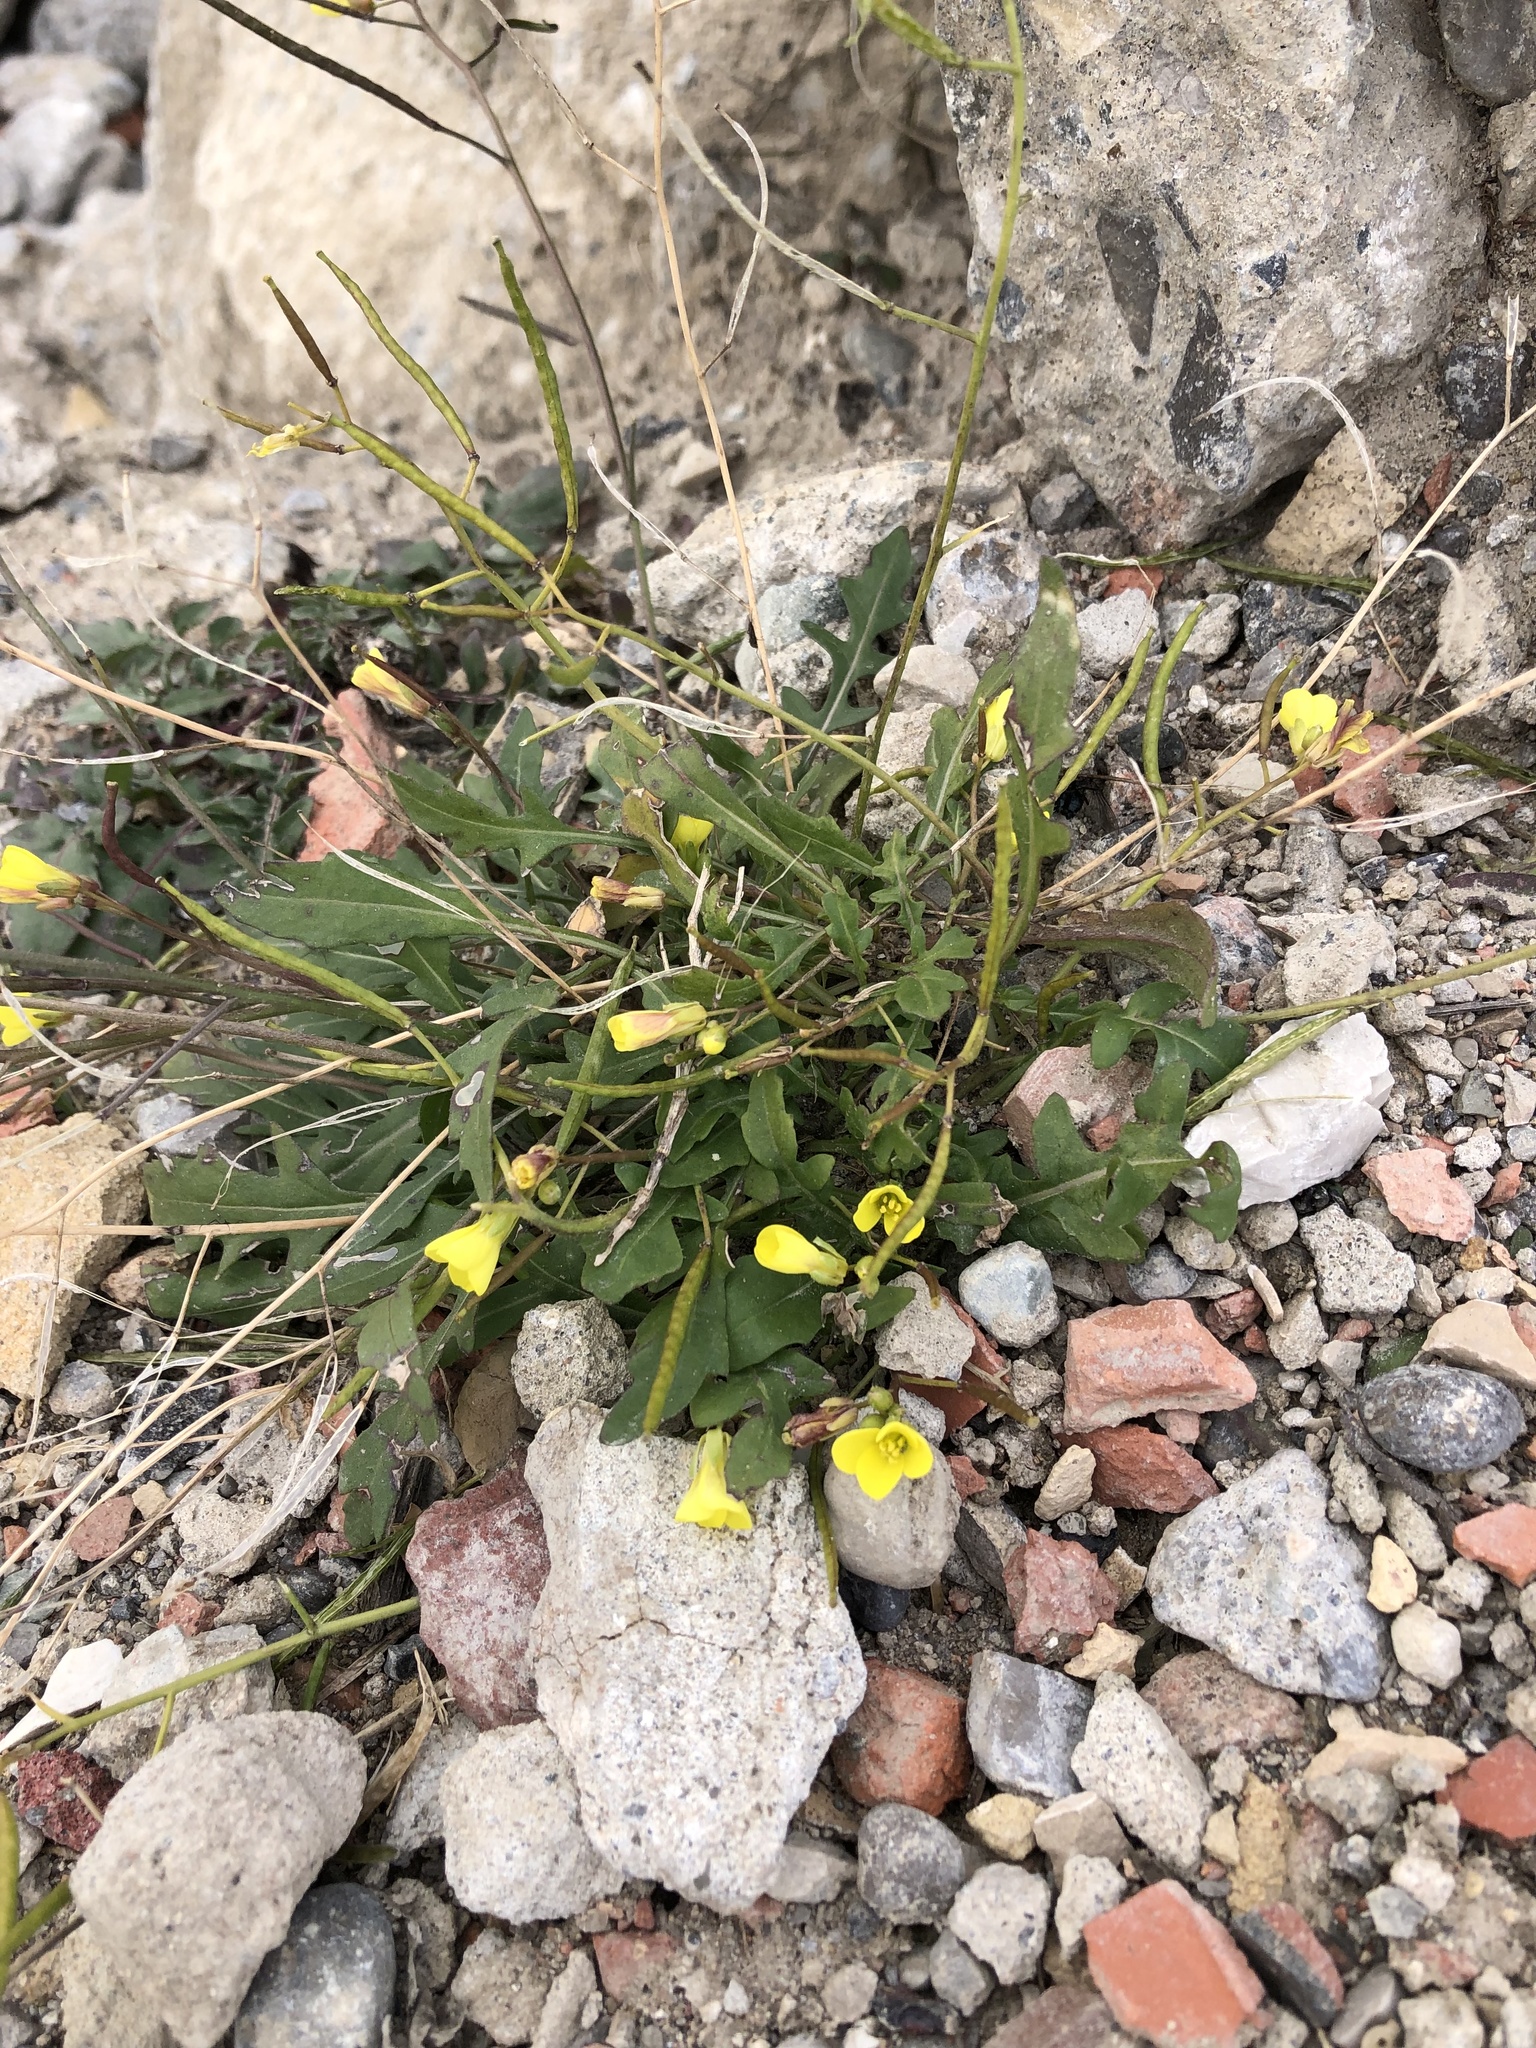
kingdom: Plantae
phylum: Tracheophyta
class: Magnoliopsida
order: Brassicales
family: Brassicaceae
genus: Diplotaxis
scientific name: Diplotaxis muralis
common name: Annual wall-rocket
